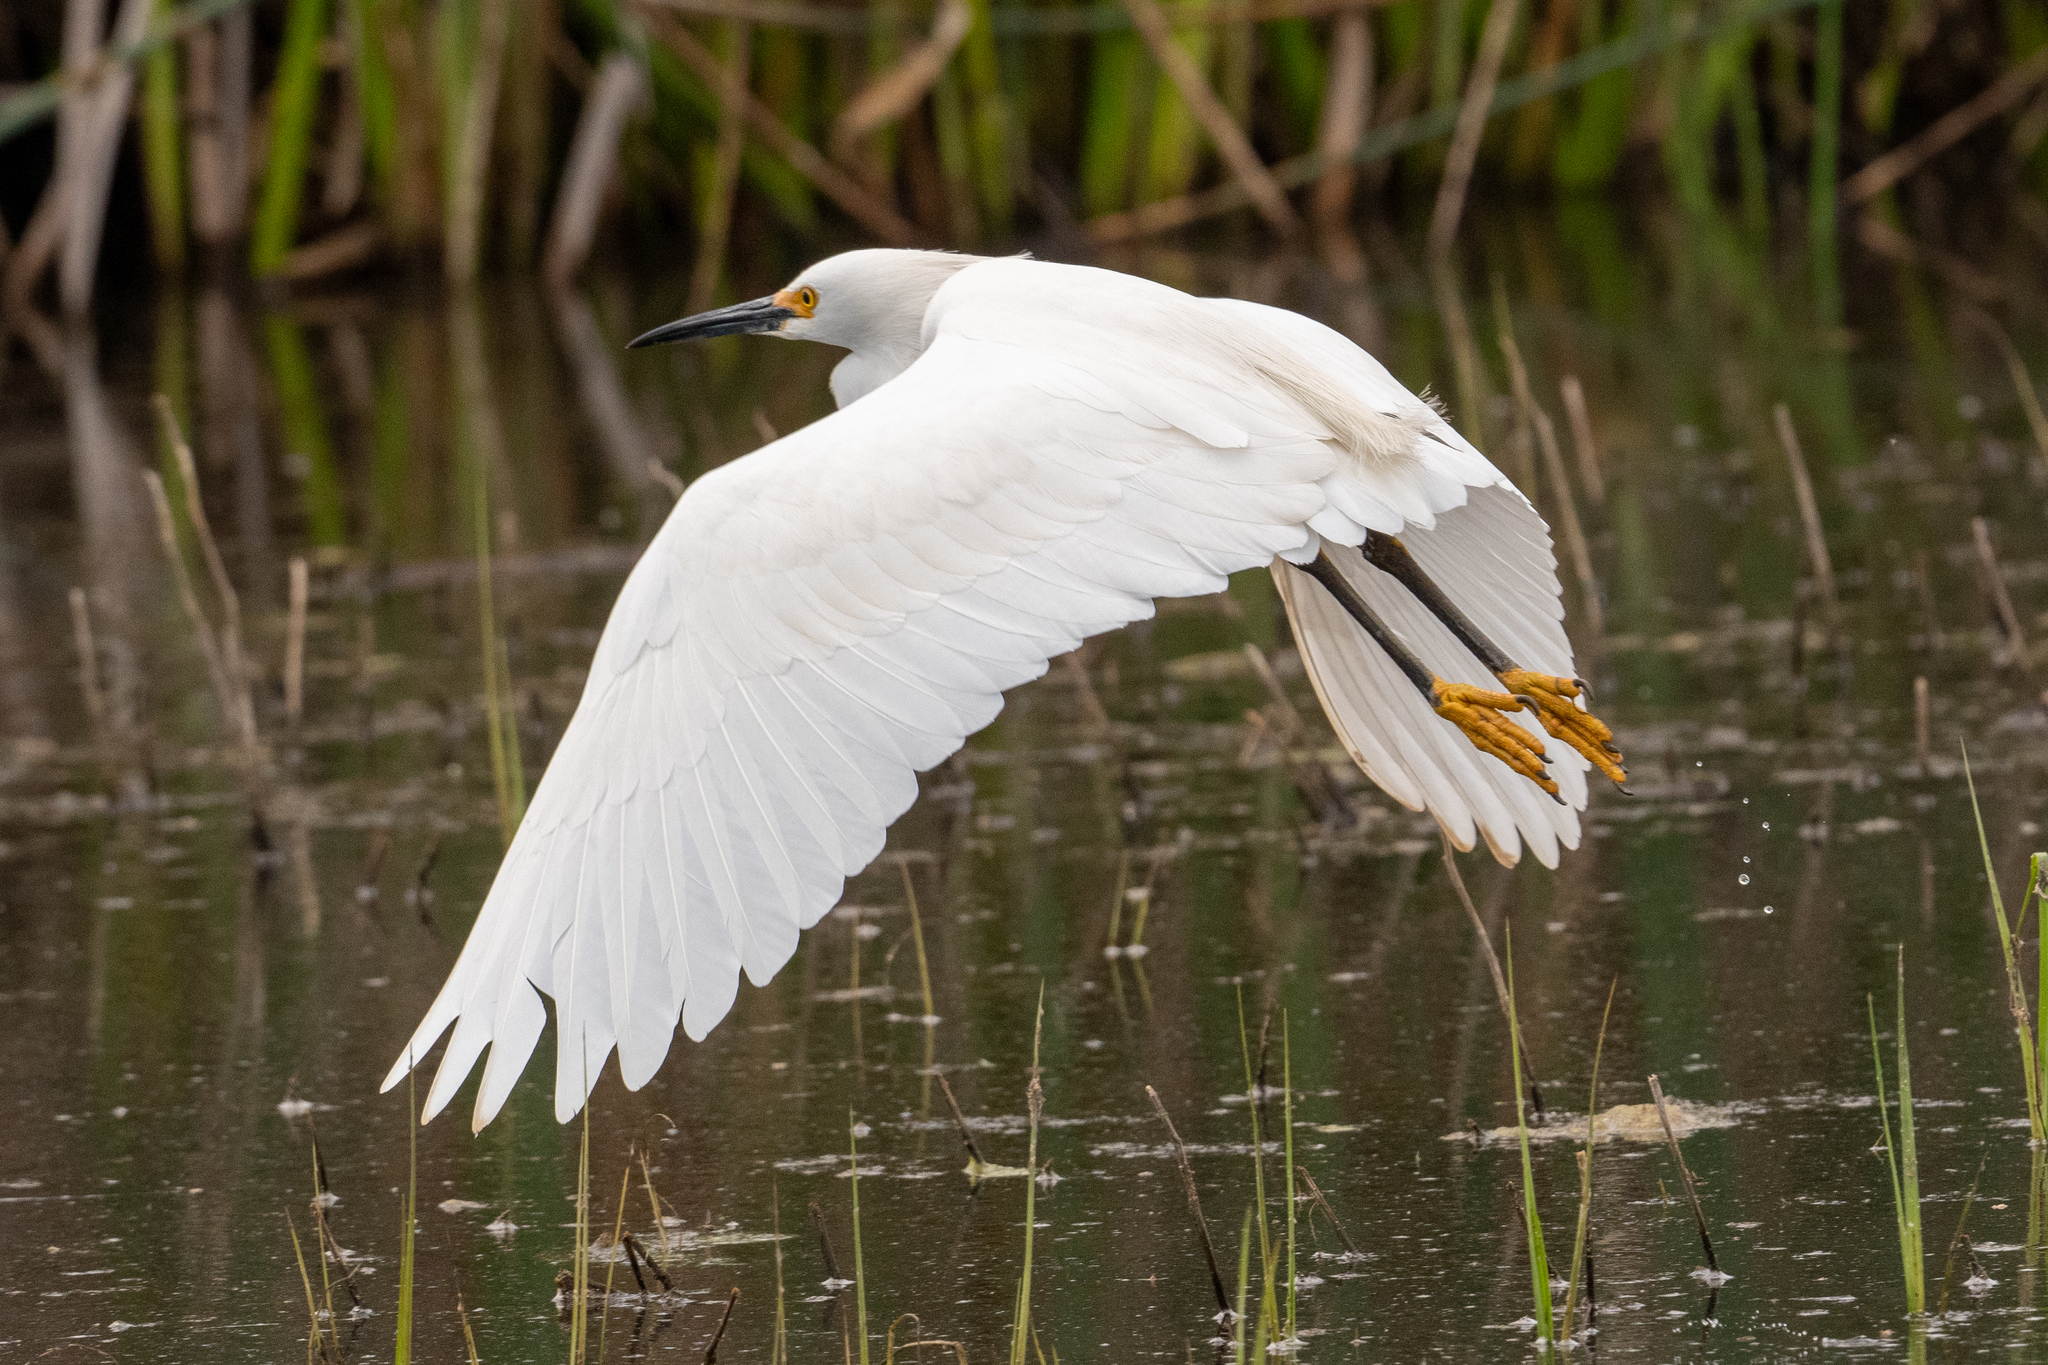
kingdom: Animalia
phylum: Chordata
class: Aves
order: Pelecaniformes
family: Ardeidae
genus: Egretta
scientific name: Egretta thula
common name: Snowy egret
